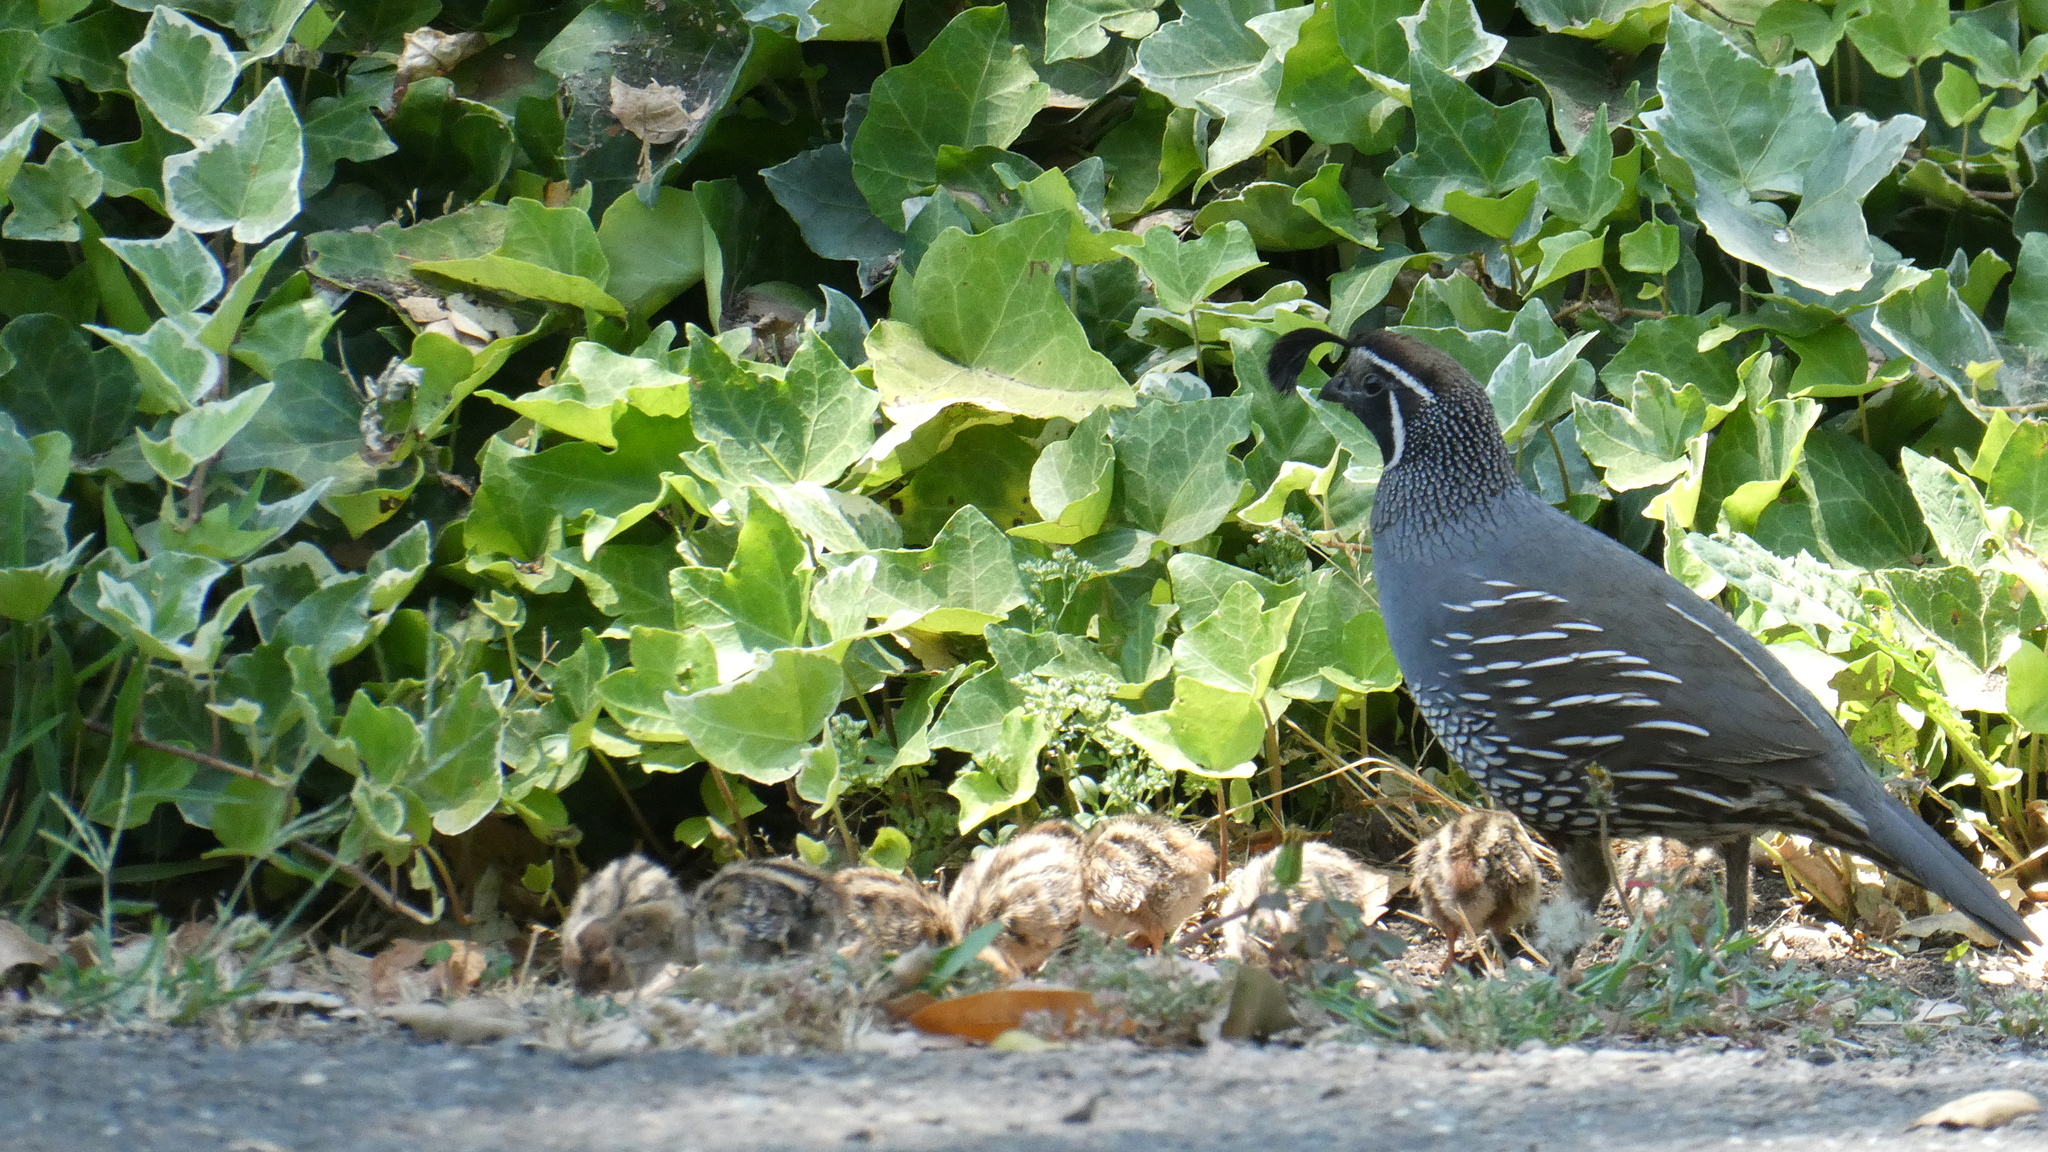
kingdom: Animalia
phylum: Chordata
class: Aves
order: Galliformes
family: Odontophoridae
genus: Callipepla
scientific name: Callipepla californica
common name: California quail
